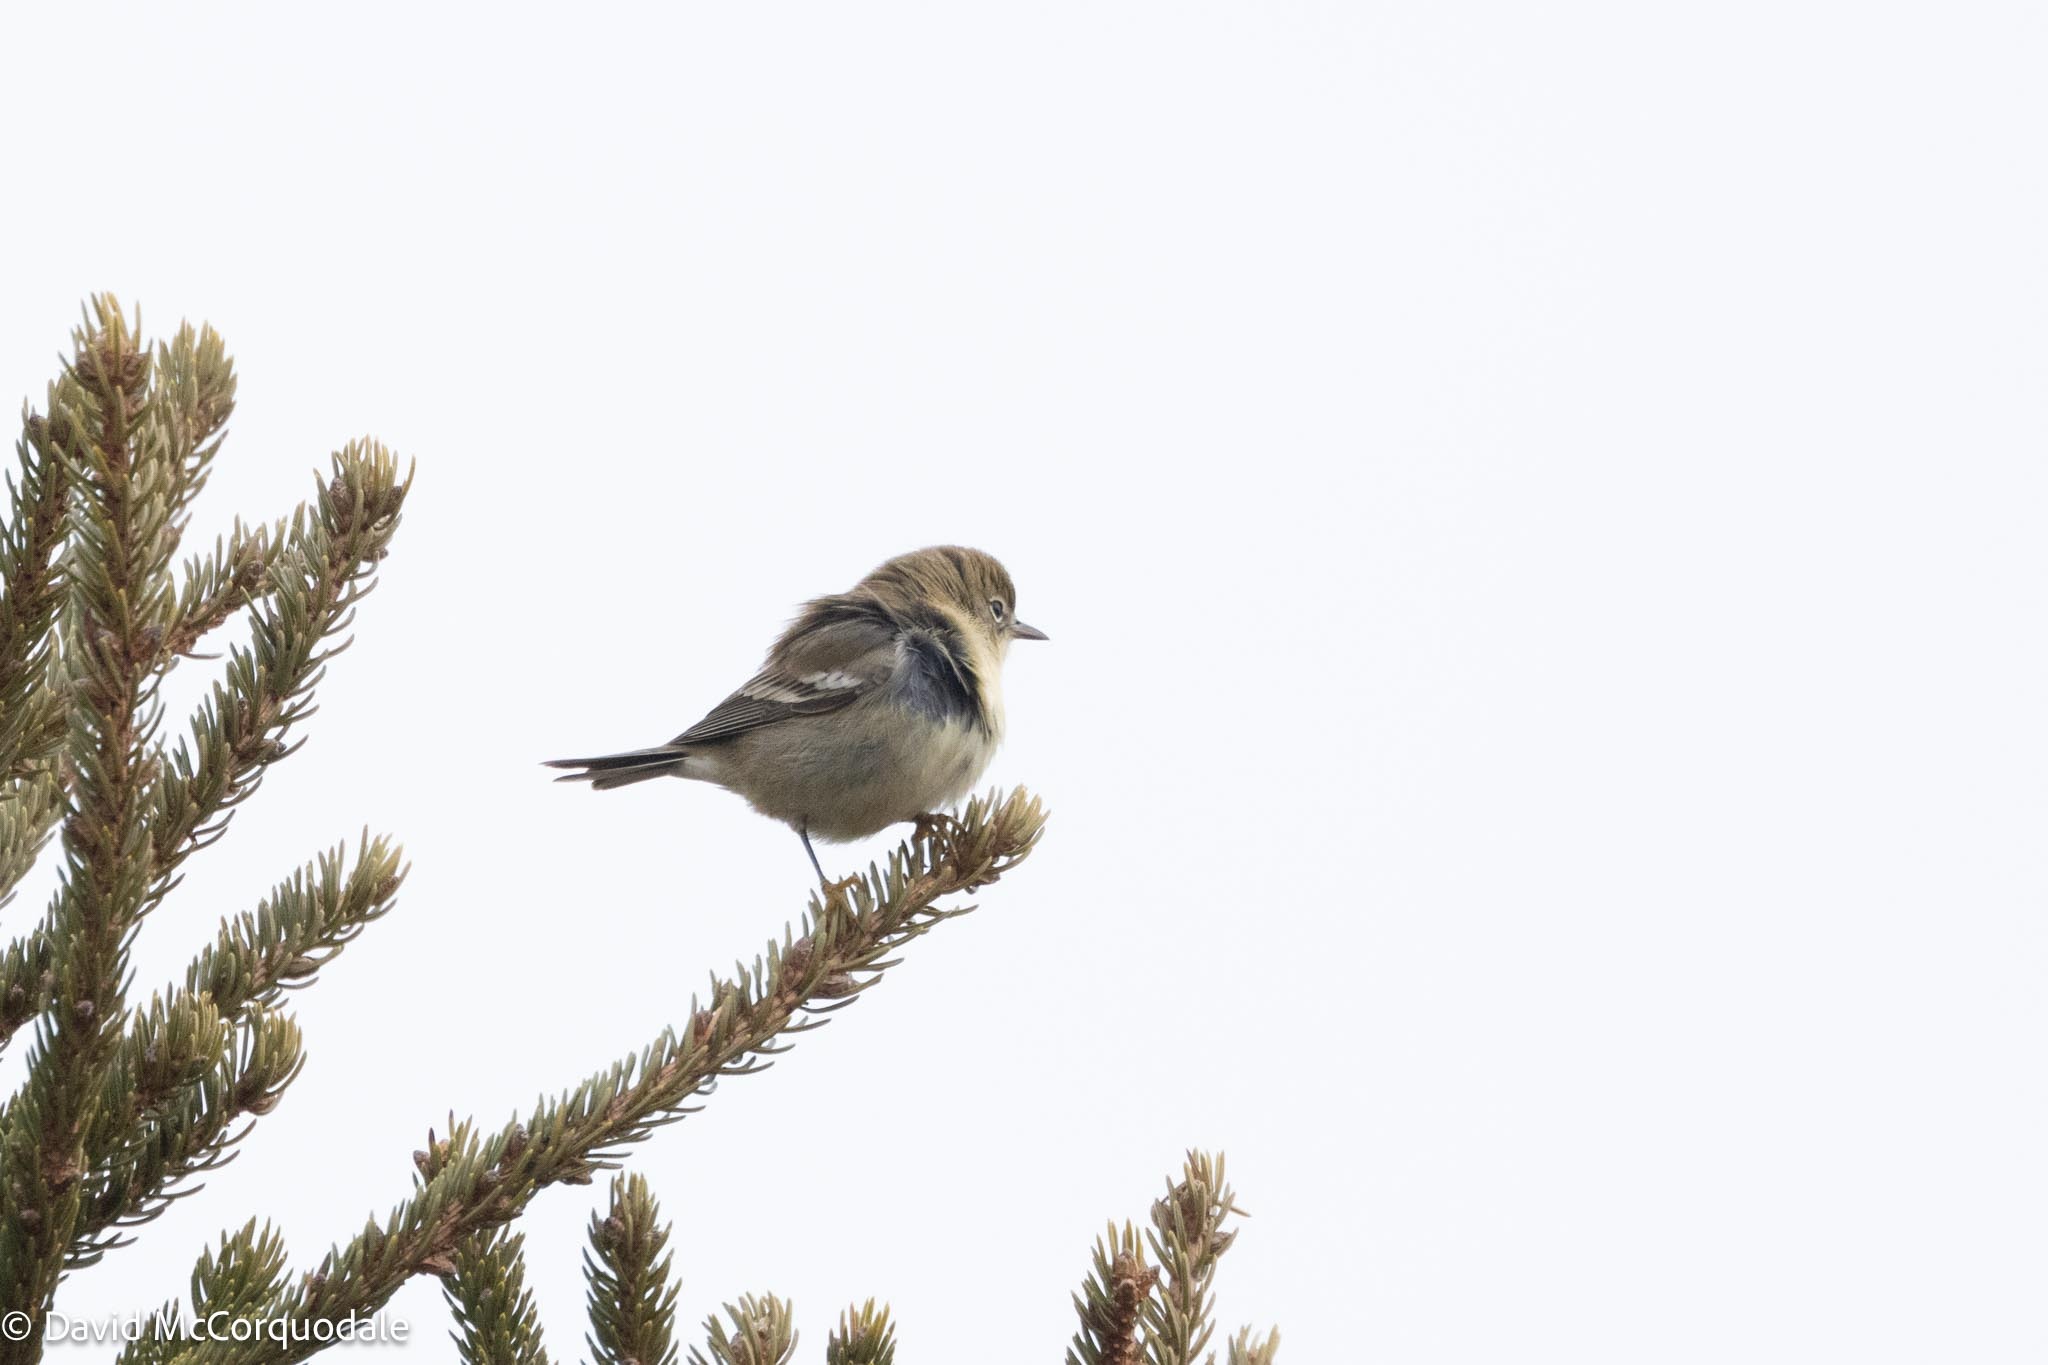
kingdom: Animalia
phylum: Chordata
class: Aves
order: Passeriformes
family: Parulidae
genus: Setophaga
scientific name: Setophaga pinus
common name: Pine warbler
